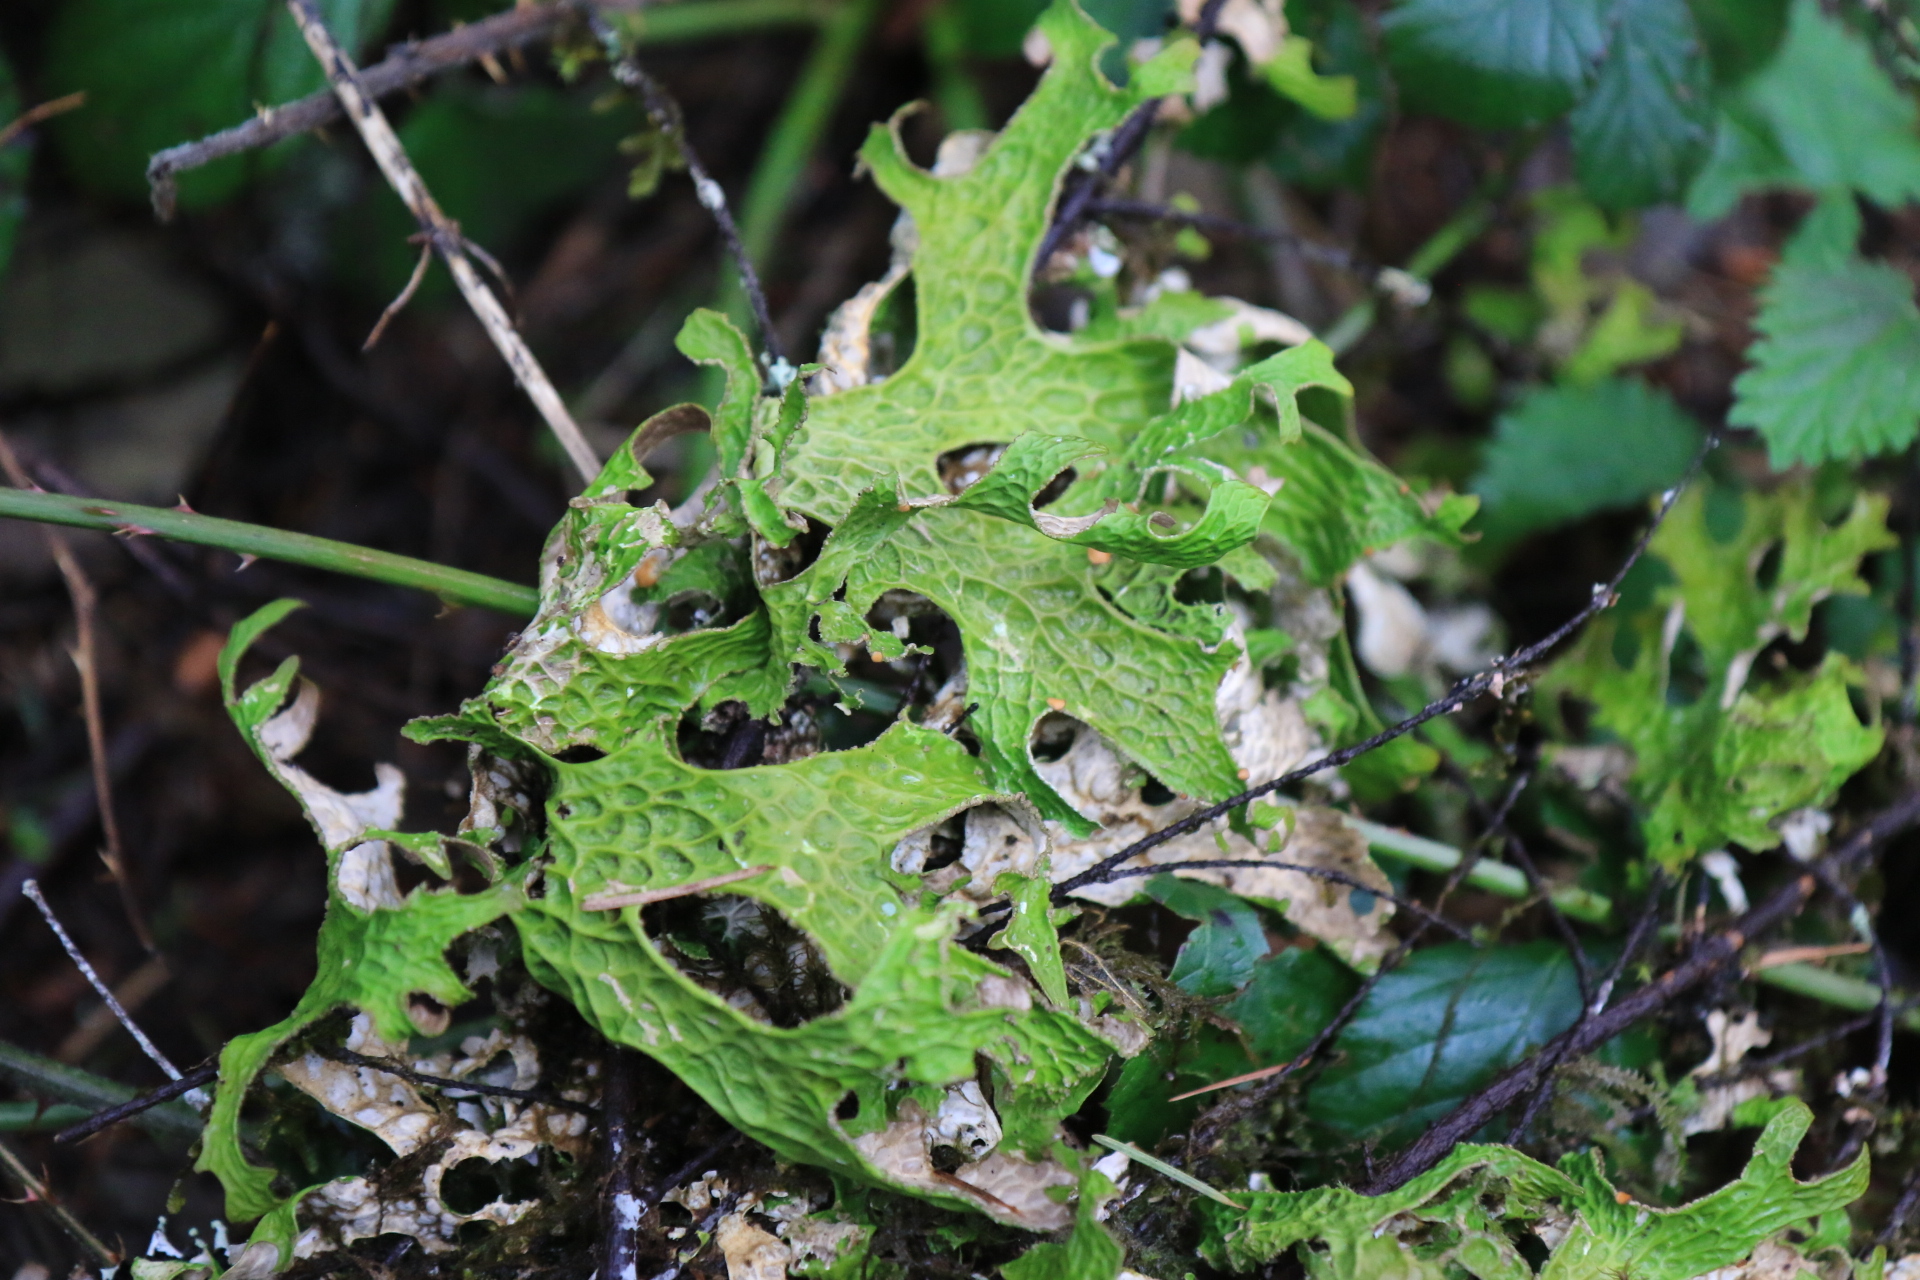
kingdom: Fungi
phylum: Ascomycota
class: Lecanoromycetes
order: Peltigerales
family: Lobariaceae
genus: Lobaria
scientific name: Lobaria pulmonaria
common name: Lungwort
